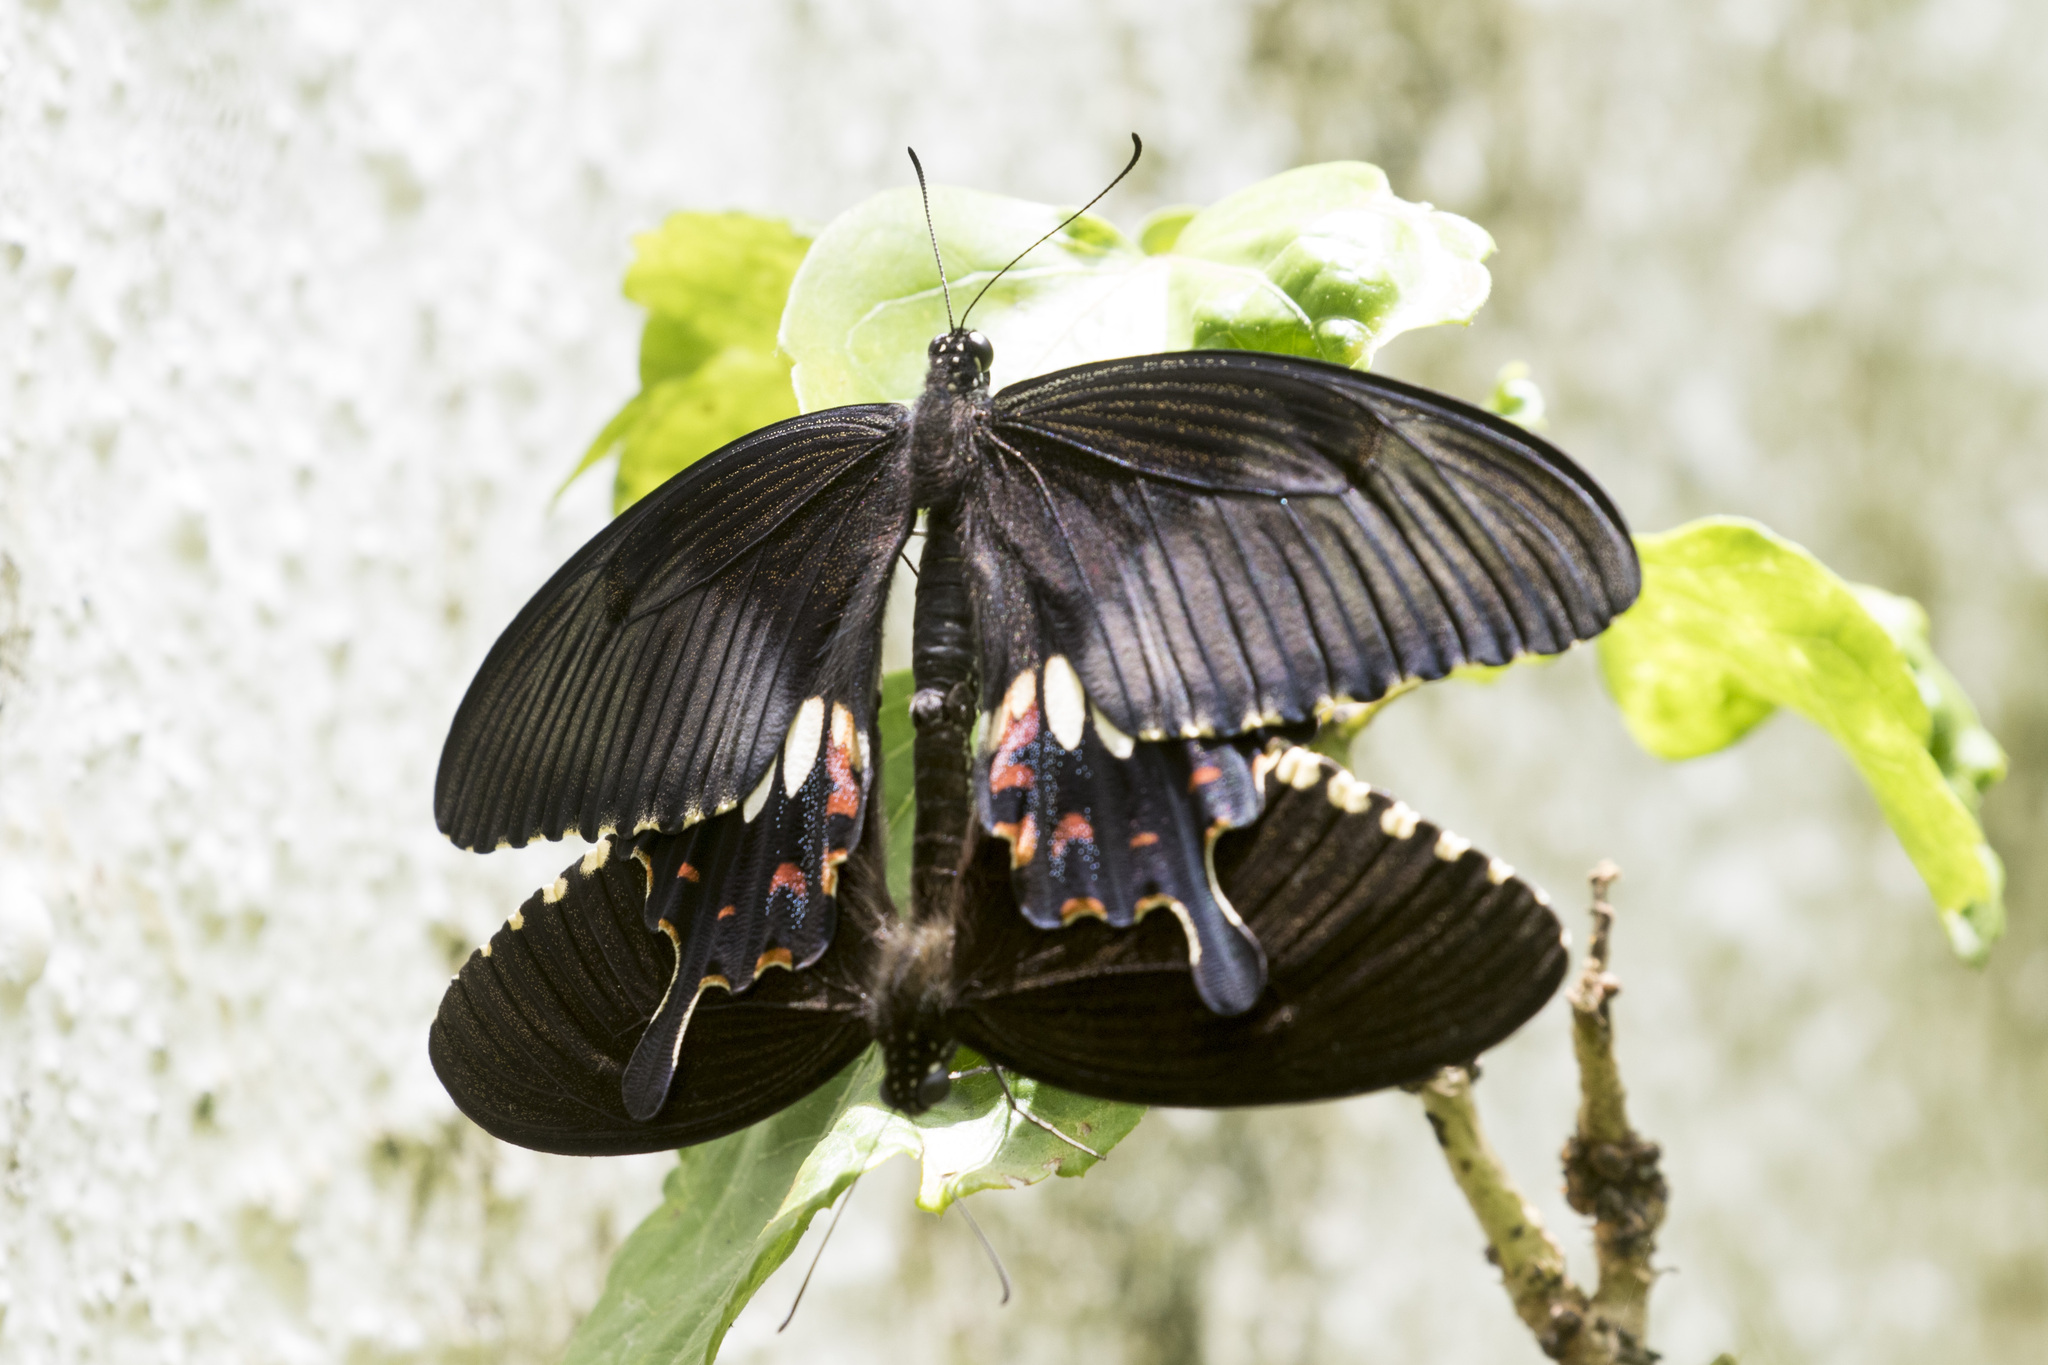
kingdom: Animalia
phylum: Arthropoda
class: Insecta
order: Lepidoptera
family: Papilionidae
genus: Papilio
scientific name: Papilio polytes
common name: Common mormon
